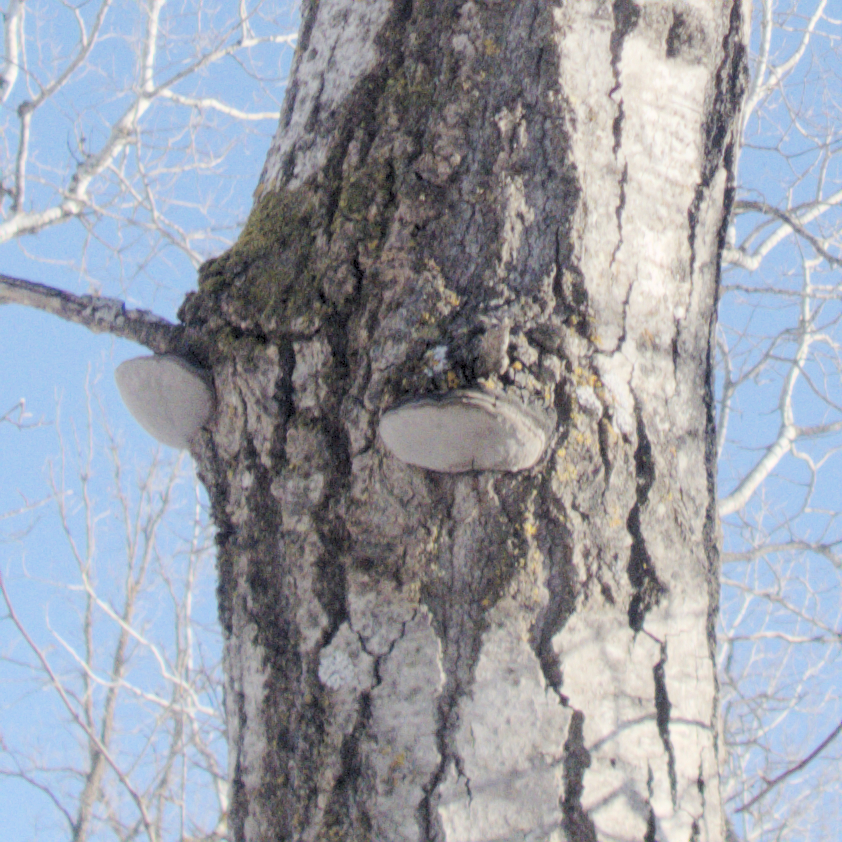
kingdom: Fungi
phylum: Basidiomycota
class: Agaricomycetes
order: Hymenochaetales
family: Hymenochaetaceae
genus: Phellinus
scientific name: Phellinus tremulae
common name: Aspen bracket
